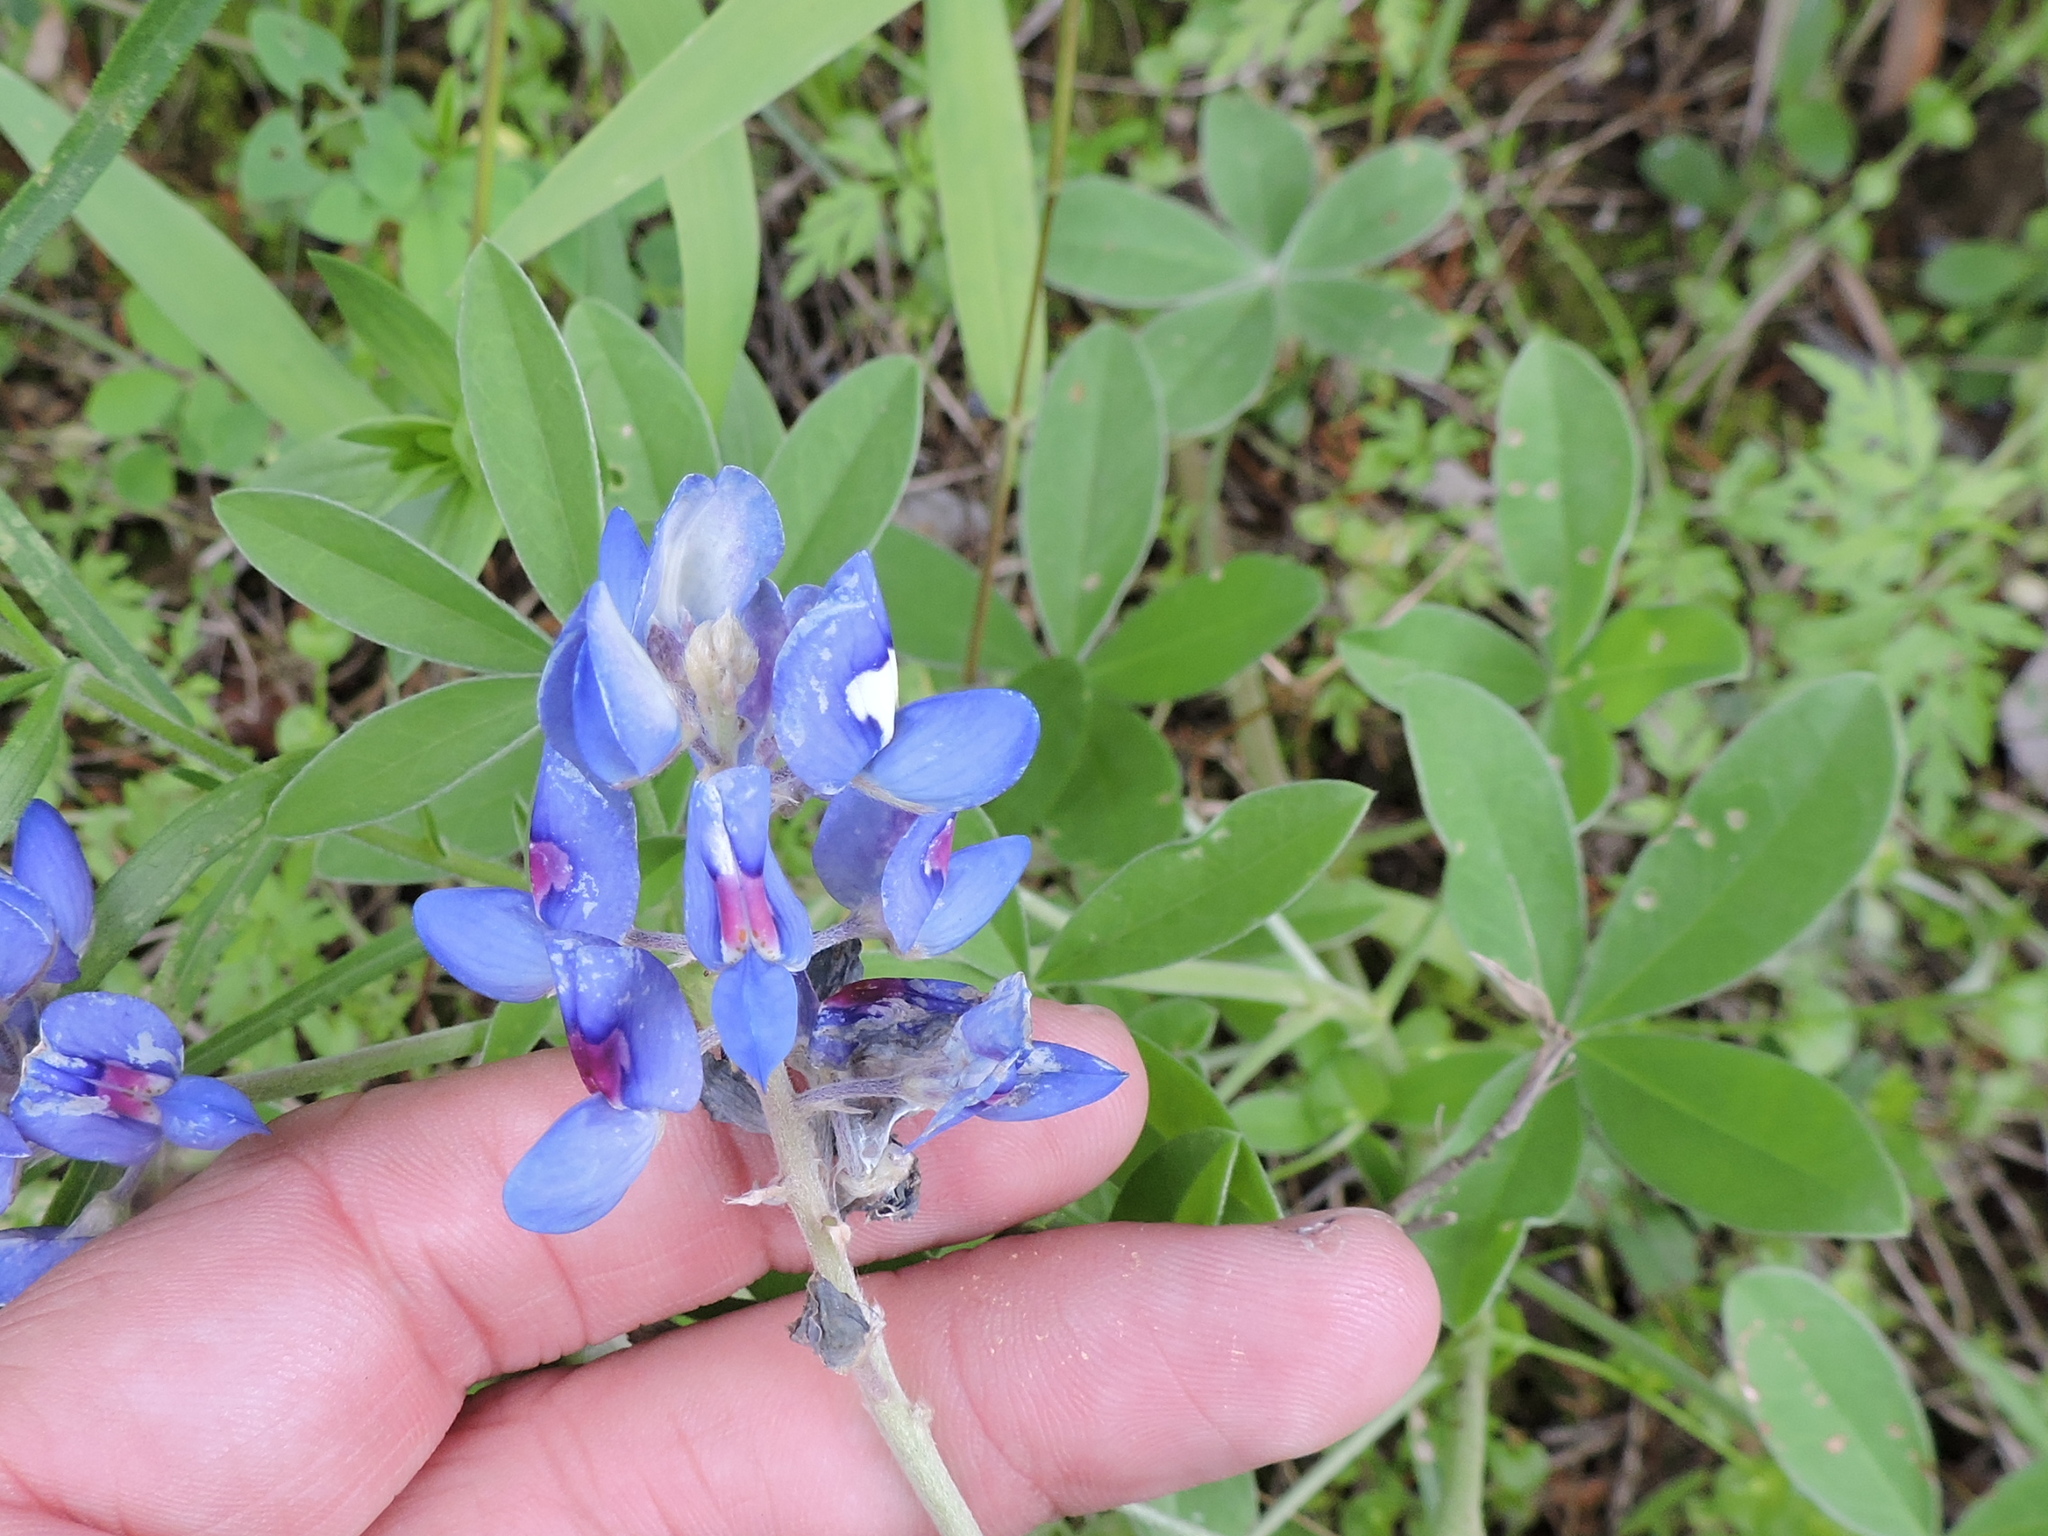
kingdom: Plantae
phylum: Tracheophyta
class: Magnoliopsida
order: Fabales
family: Fabaceae
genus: Lupinus
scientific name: Lupinus texensis
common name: Texas bluebonnet
